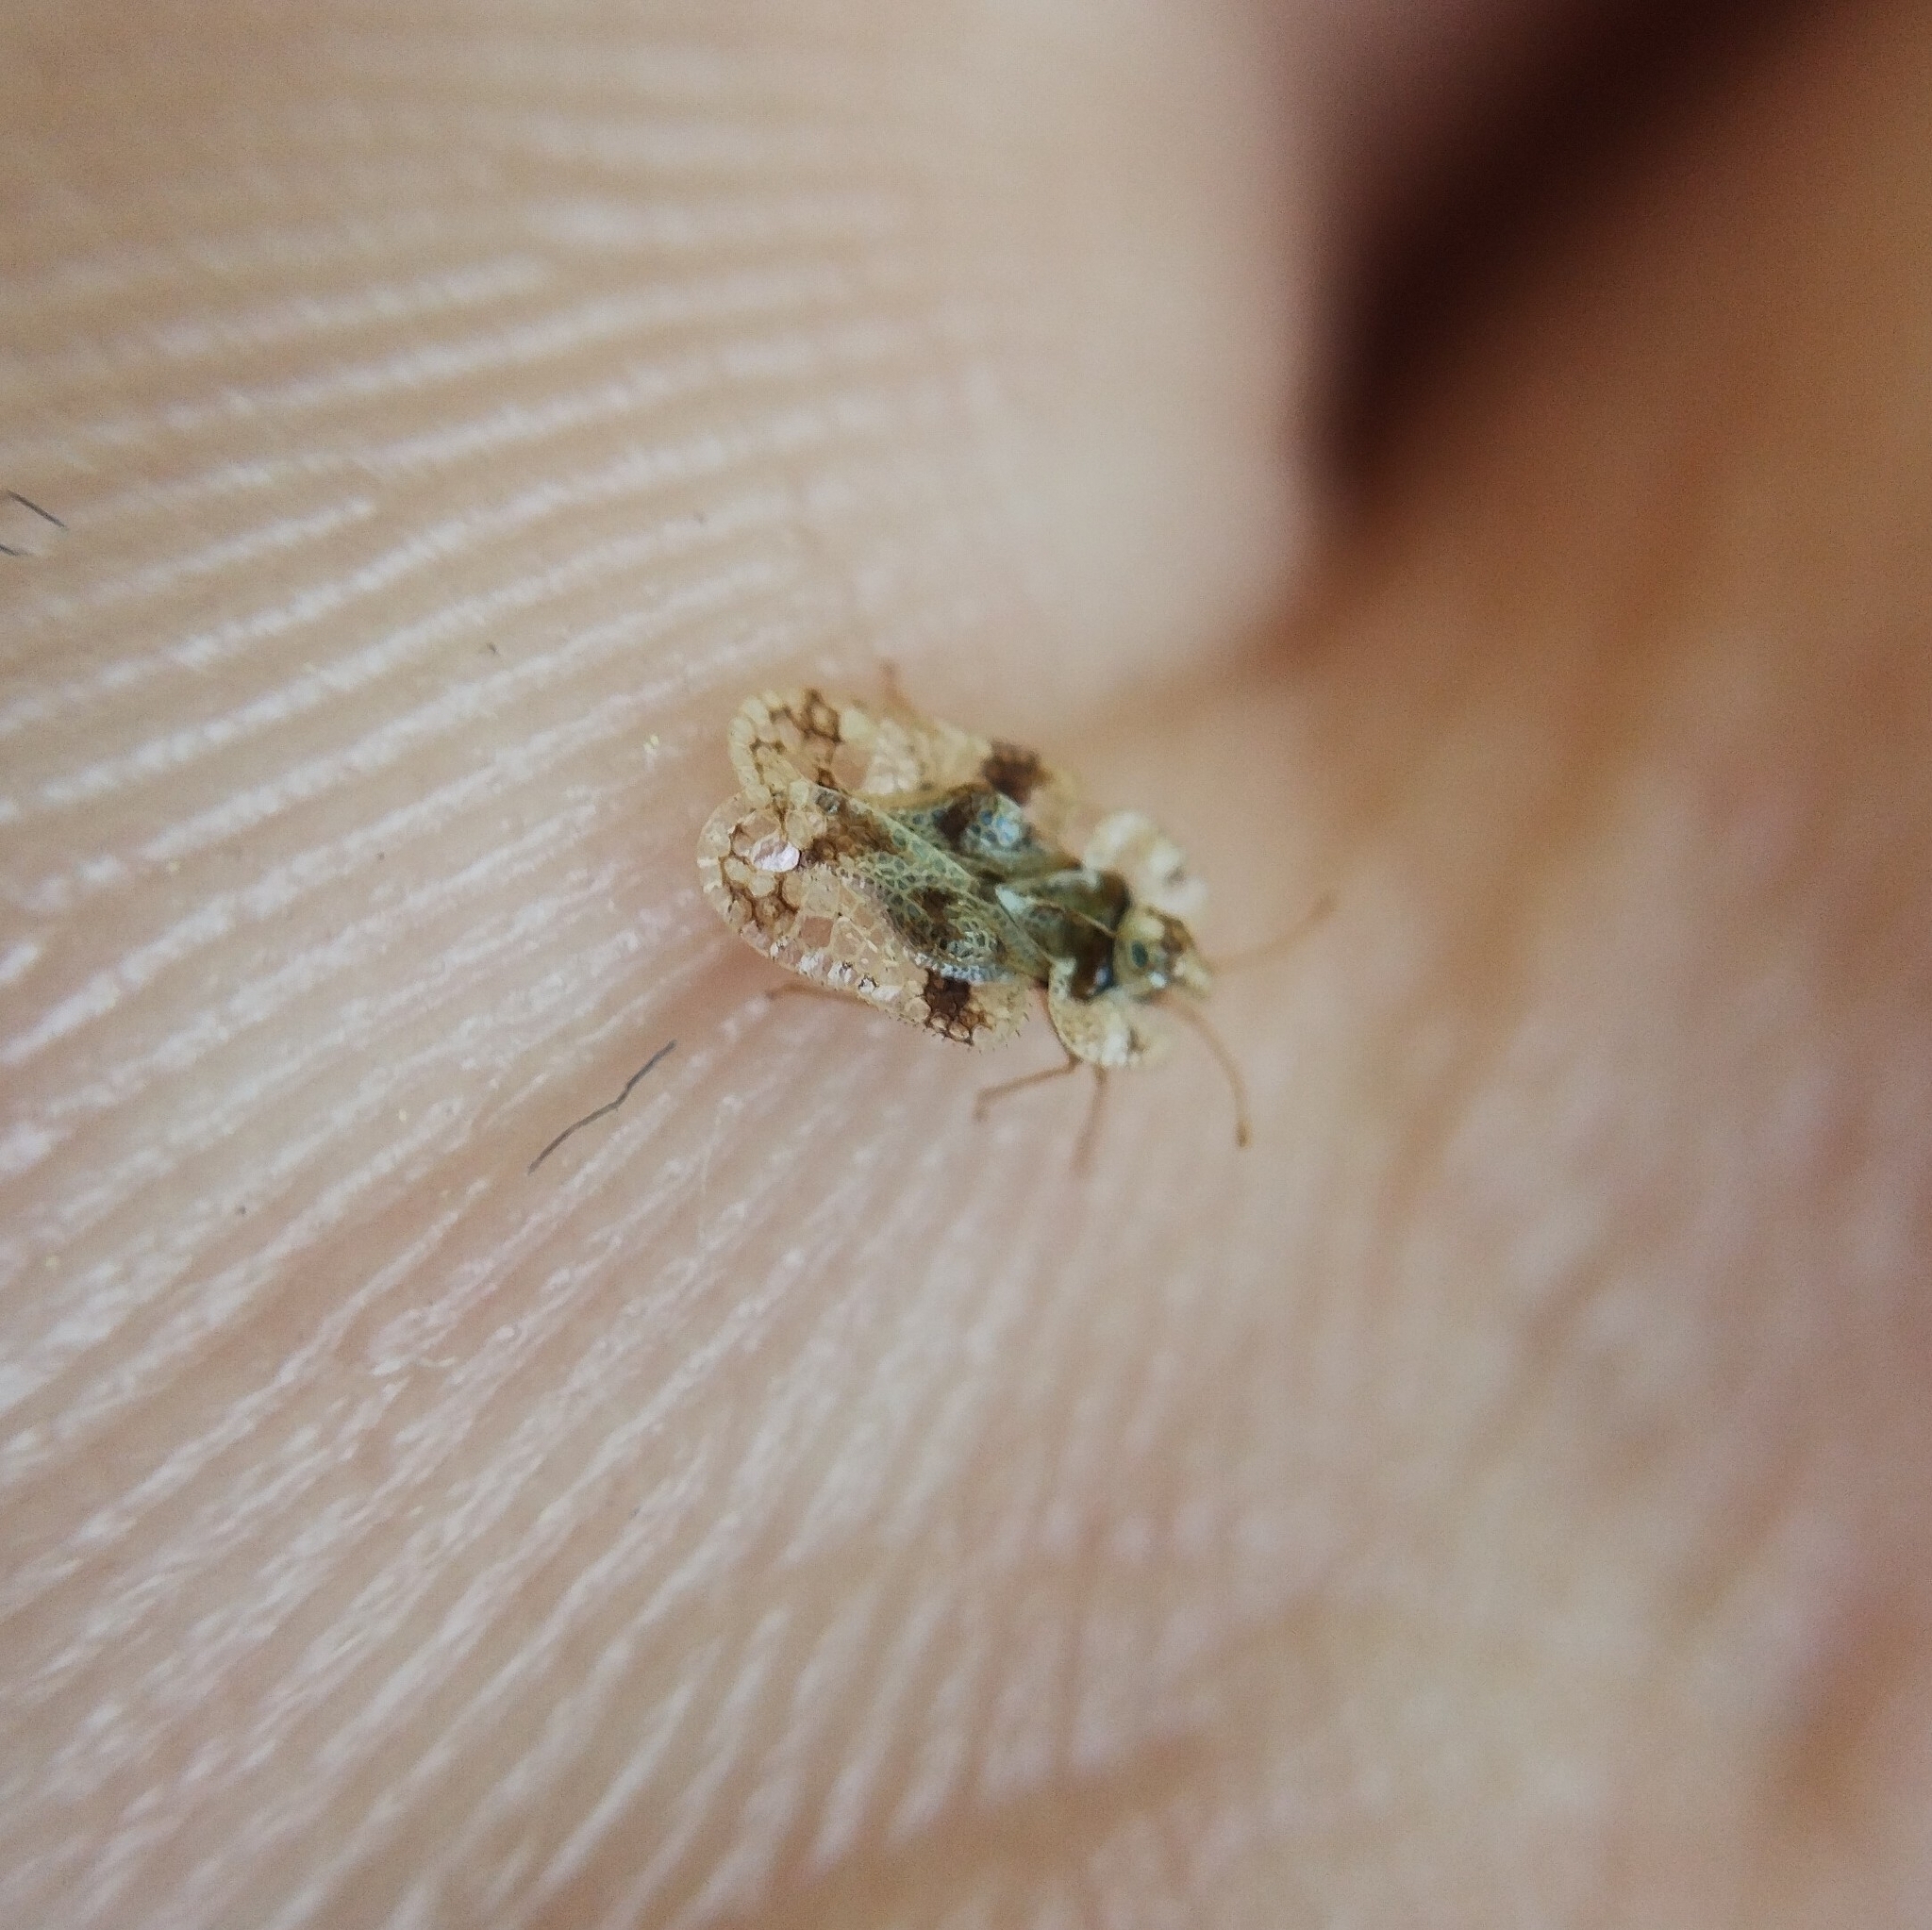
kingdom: Animalia
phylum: Arthropoda
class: Insecta
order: Hemiptera
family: Tingidae
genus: Corythucha
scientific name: Corythucha arcuata
